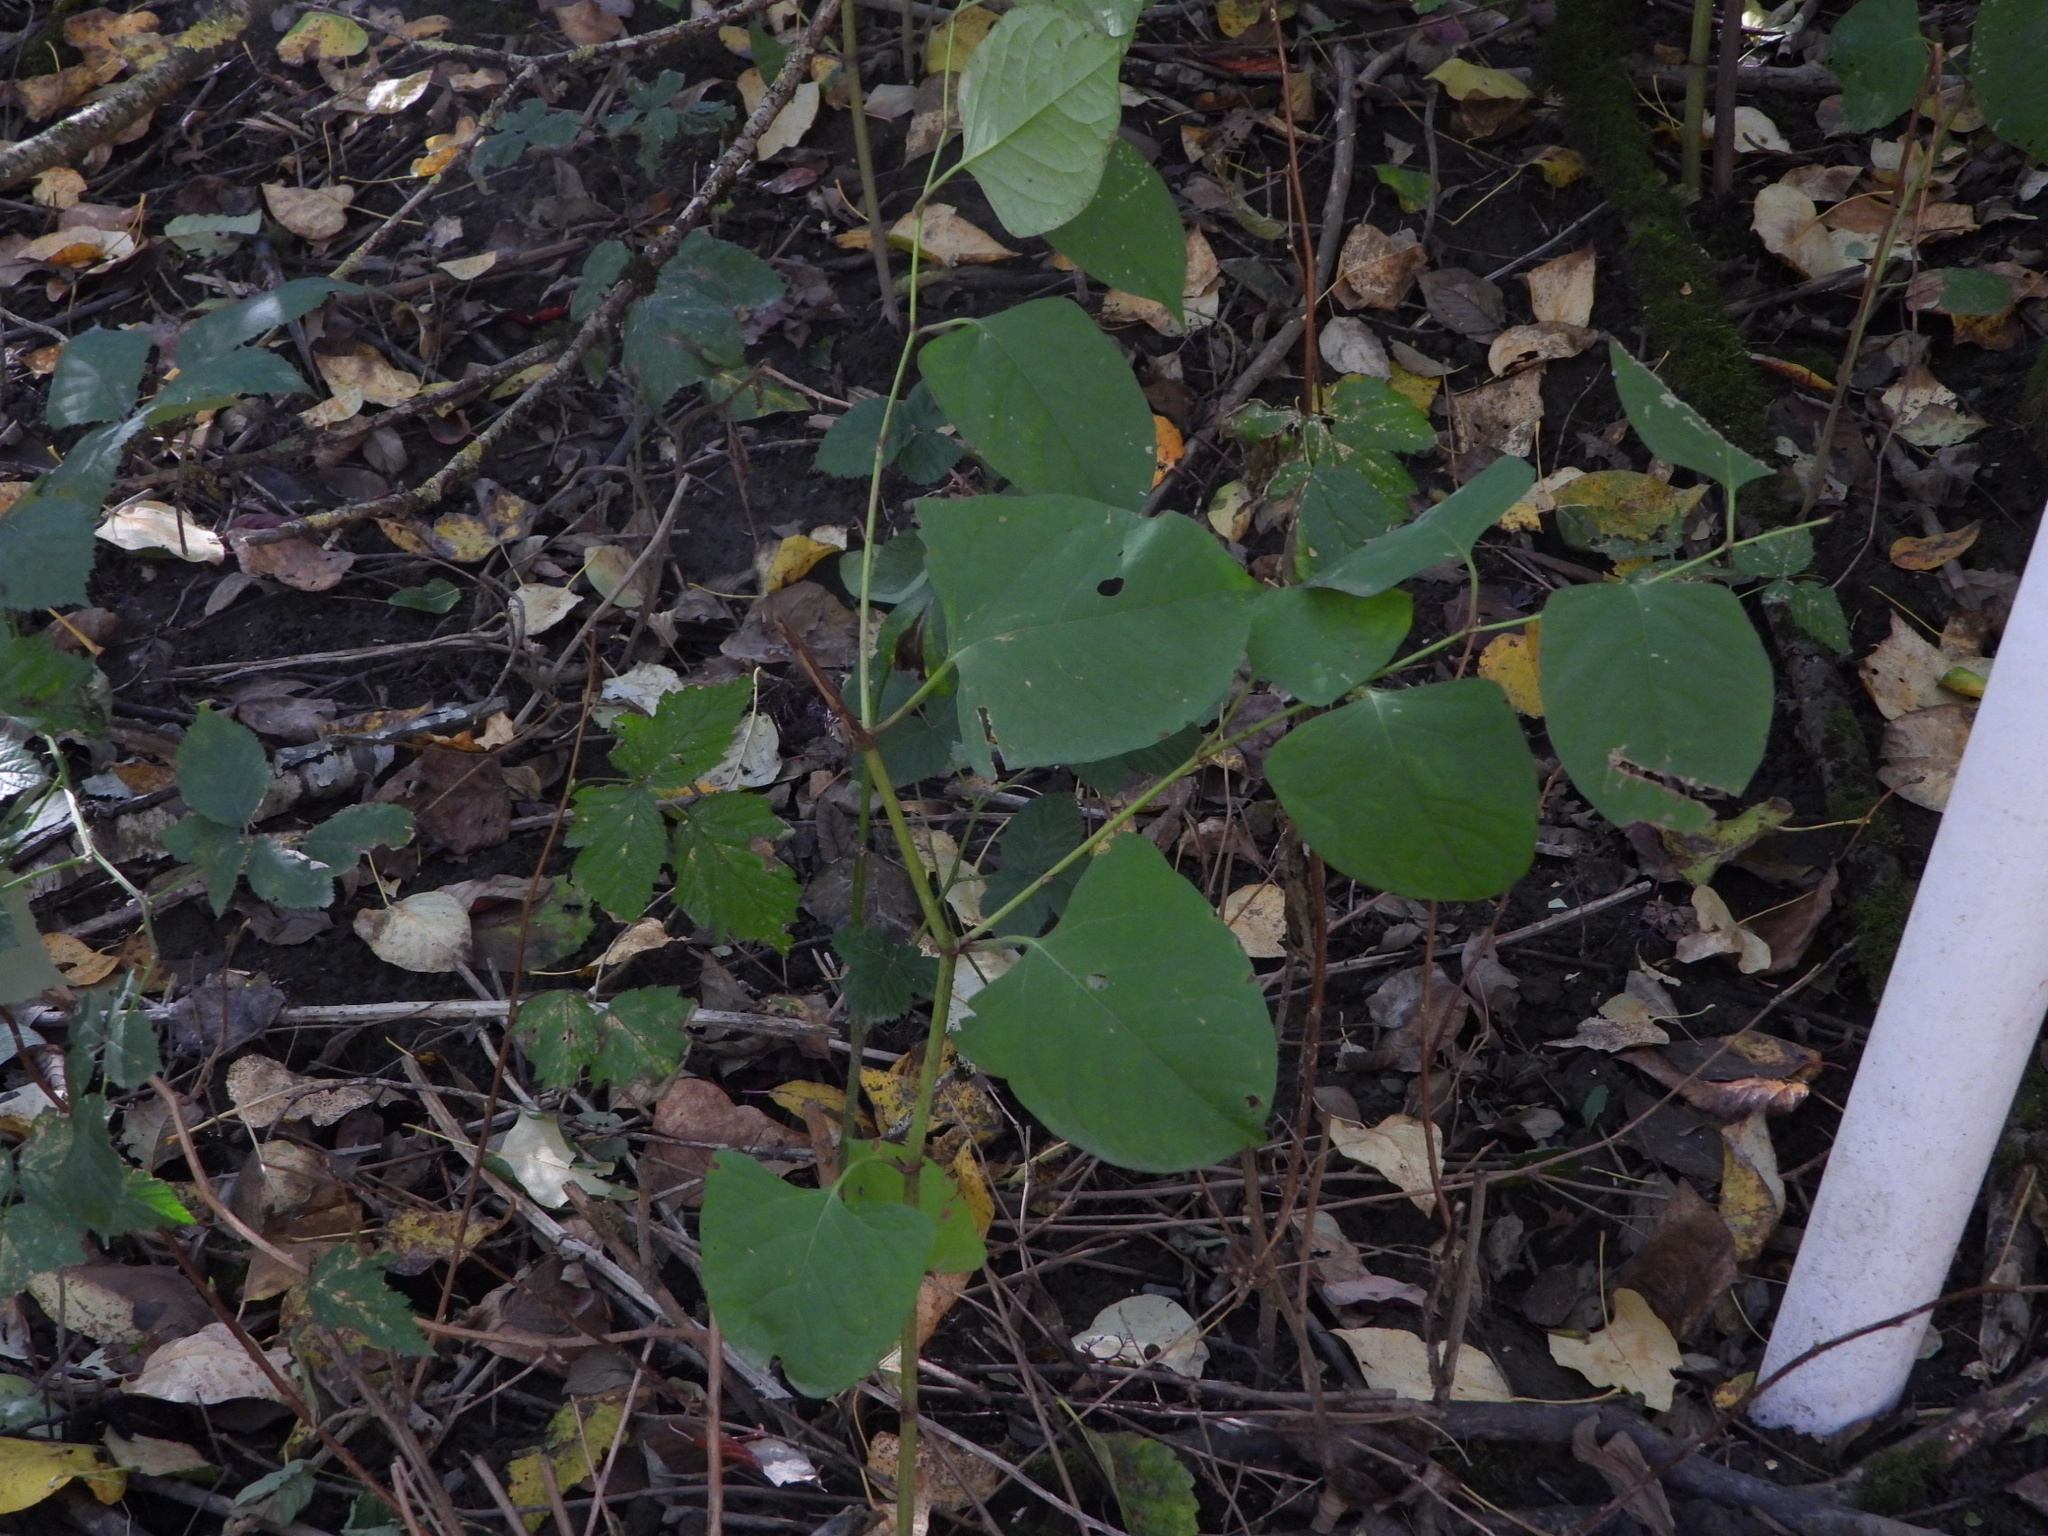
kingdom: Plantae
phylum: Tracheophyta
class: Magnoliopsida
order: Caryophyllales
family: Polygonaceae
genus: Reynoutria
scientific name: Reynoutria japonica
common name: Japanese knotweed
